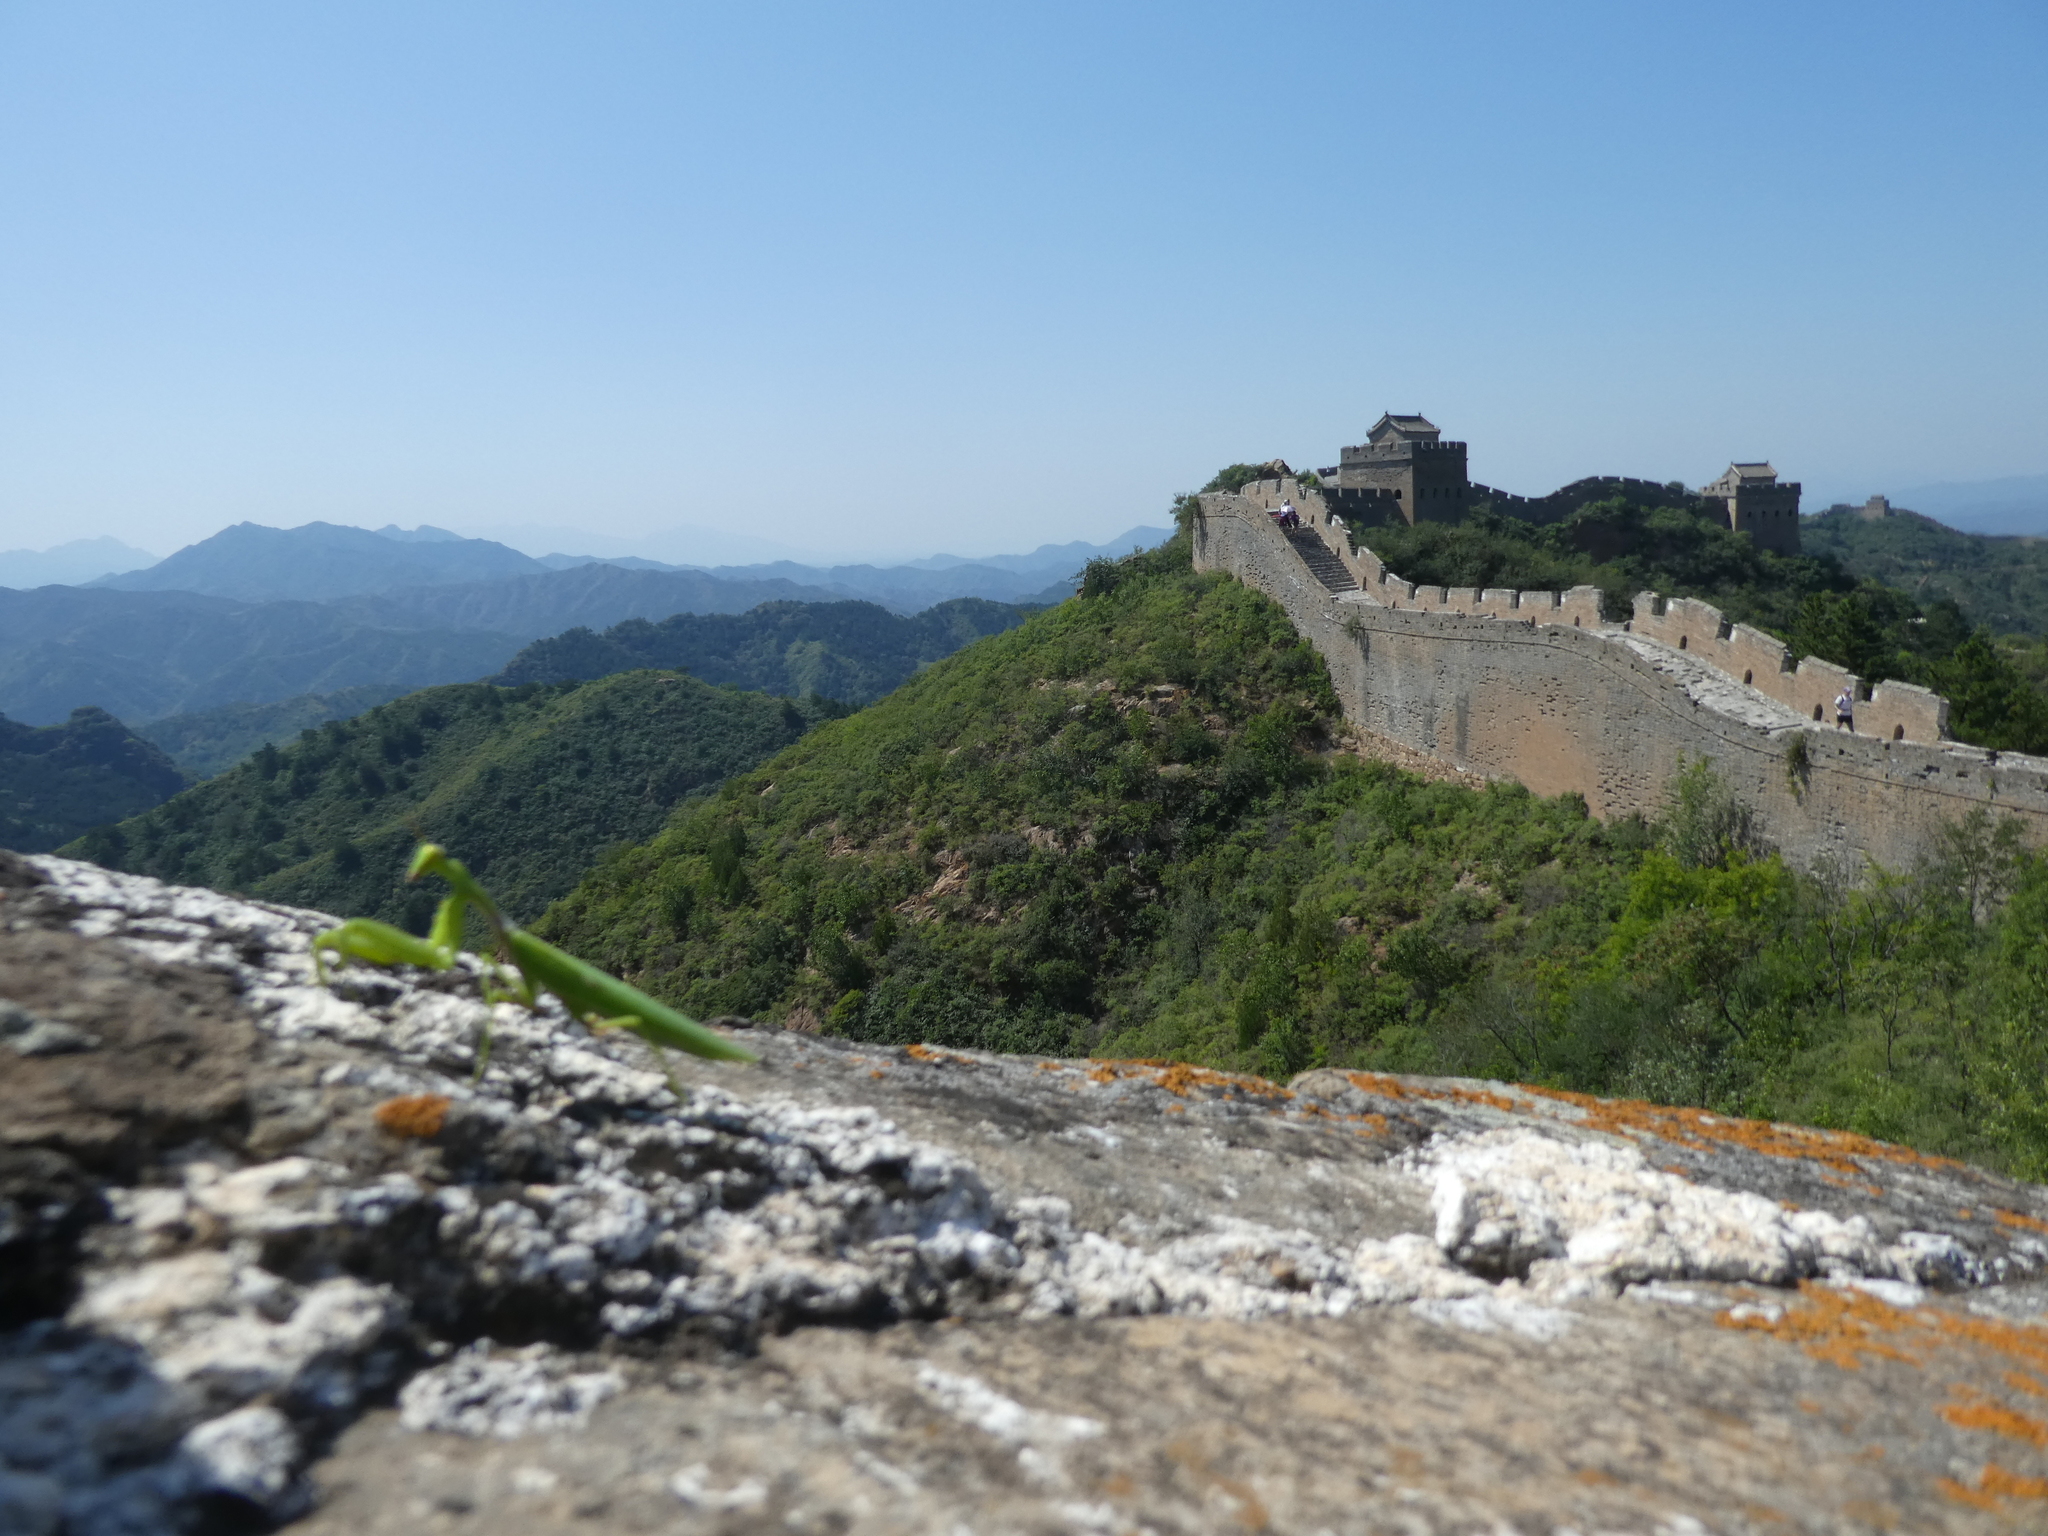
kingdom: Animalia
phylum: Arthropoda
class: Insecta
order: Mantodea
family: Mantidae
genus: Hierodula
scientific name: Hierodula patellifera
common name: Asian mantis
